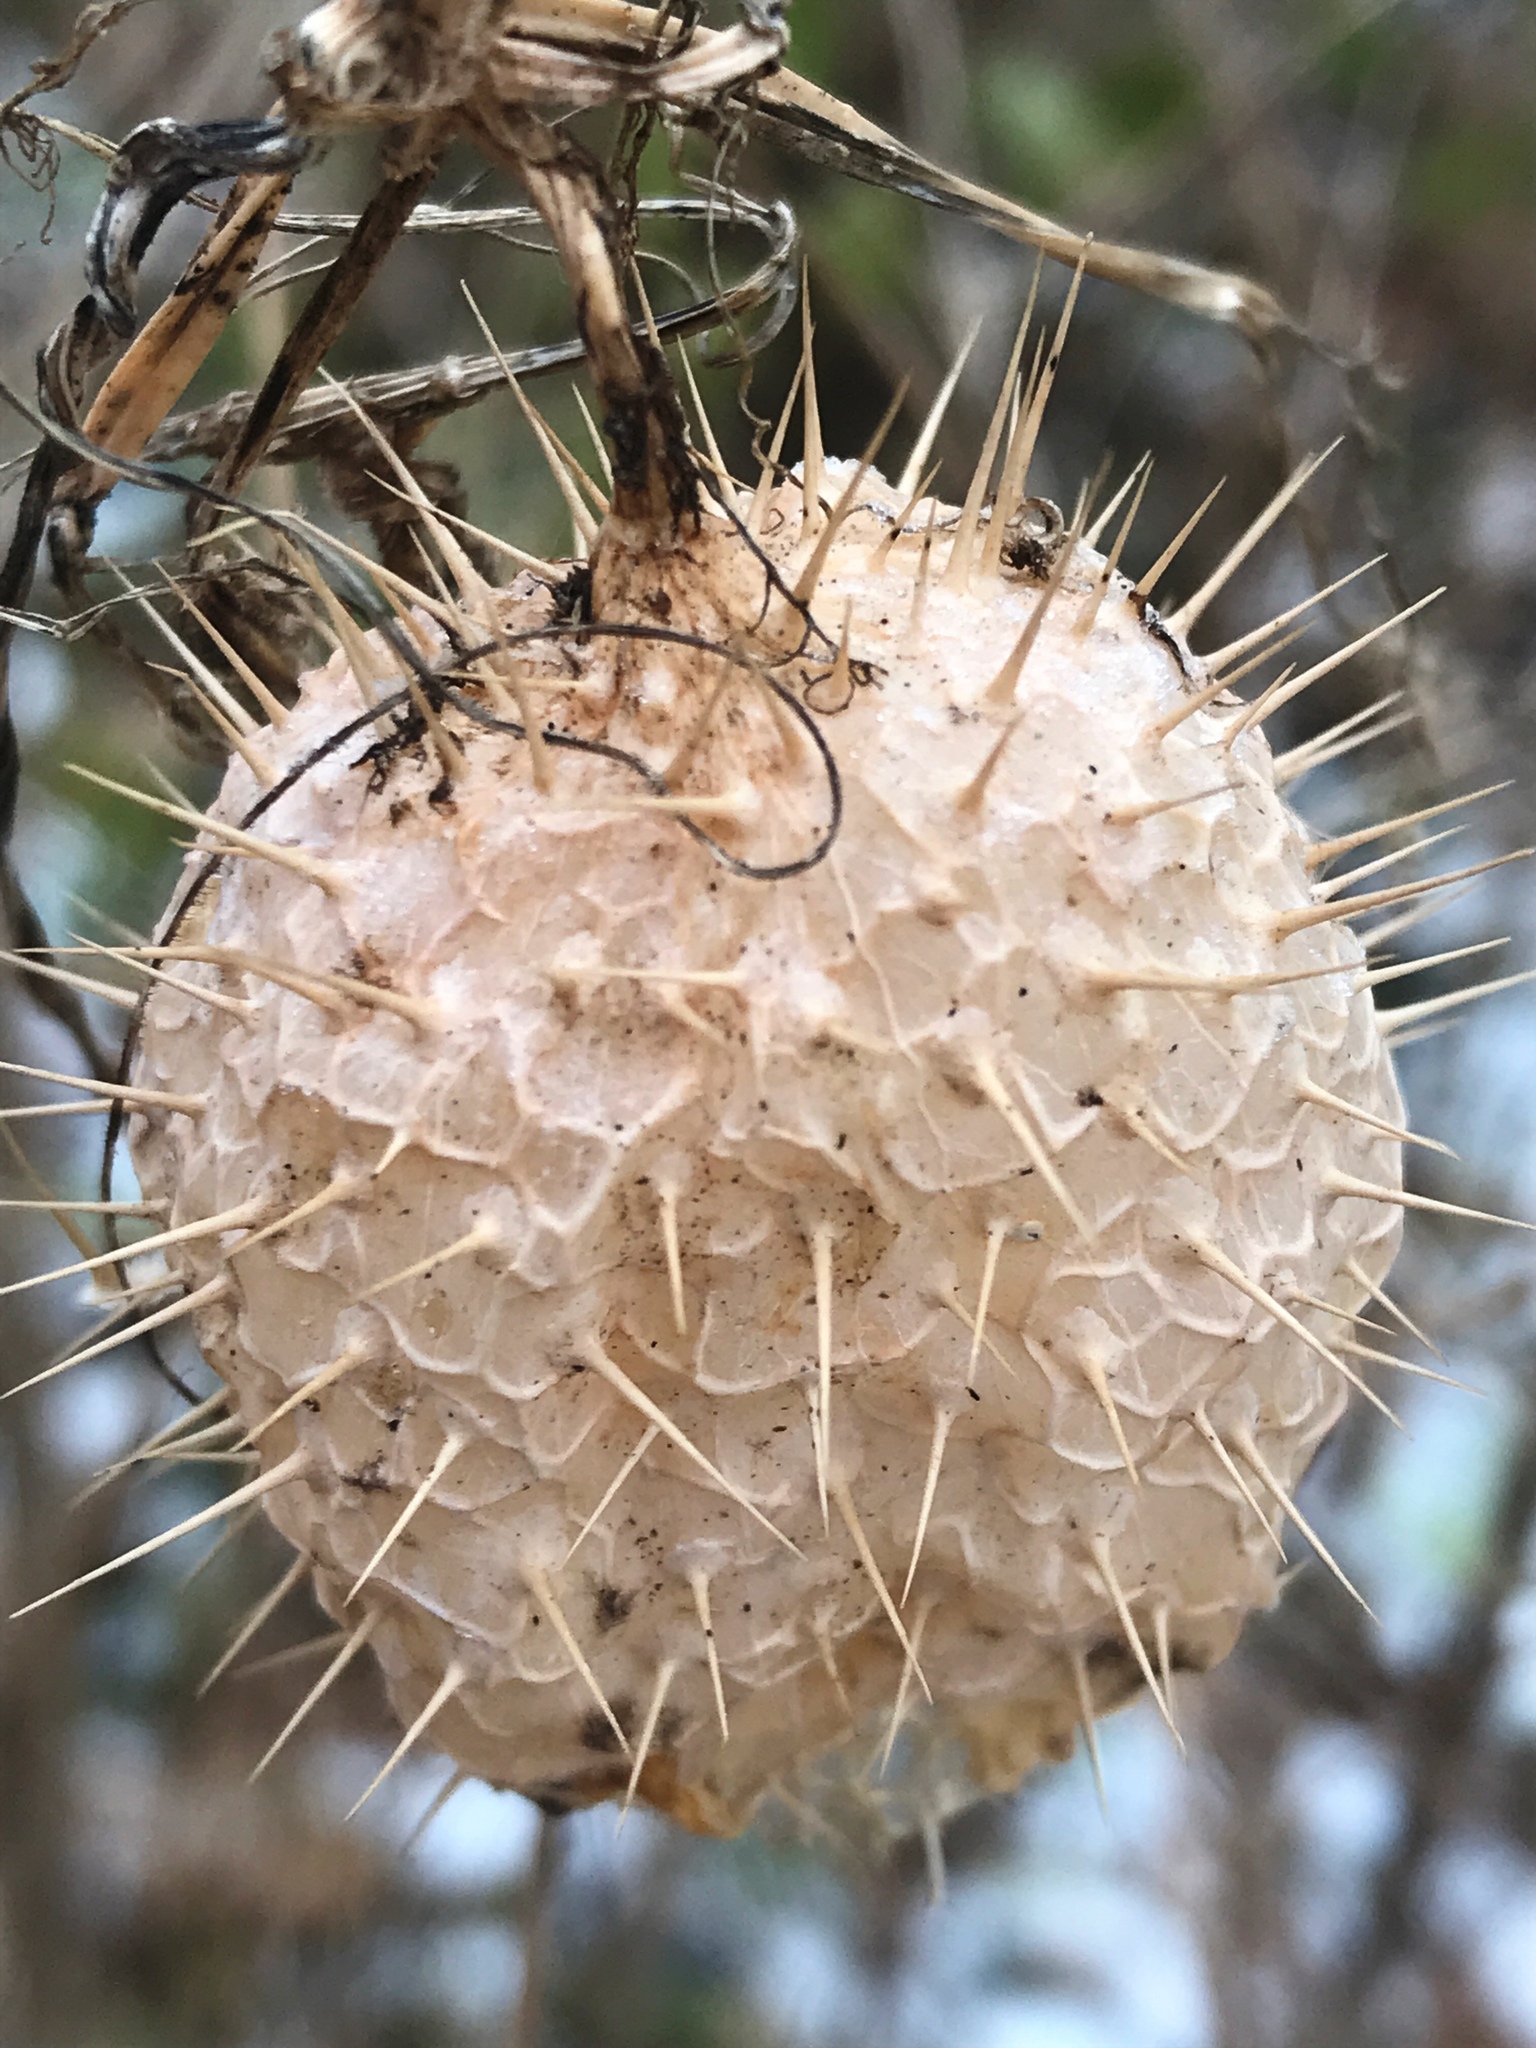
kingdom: Plantae
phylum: Tracheophyta
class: Magnoliopsida
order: Cucurbitales
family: Cucurbitaceae
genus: Echinocystis
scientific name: Echinocystis lobata
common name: Wild cucumber
